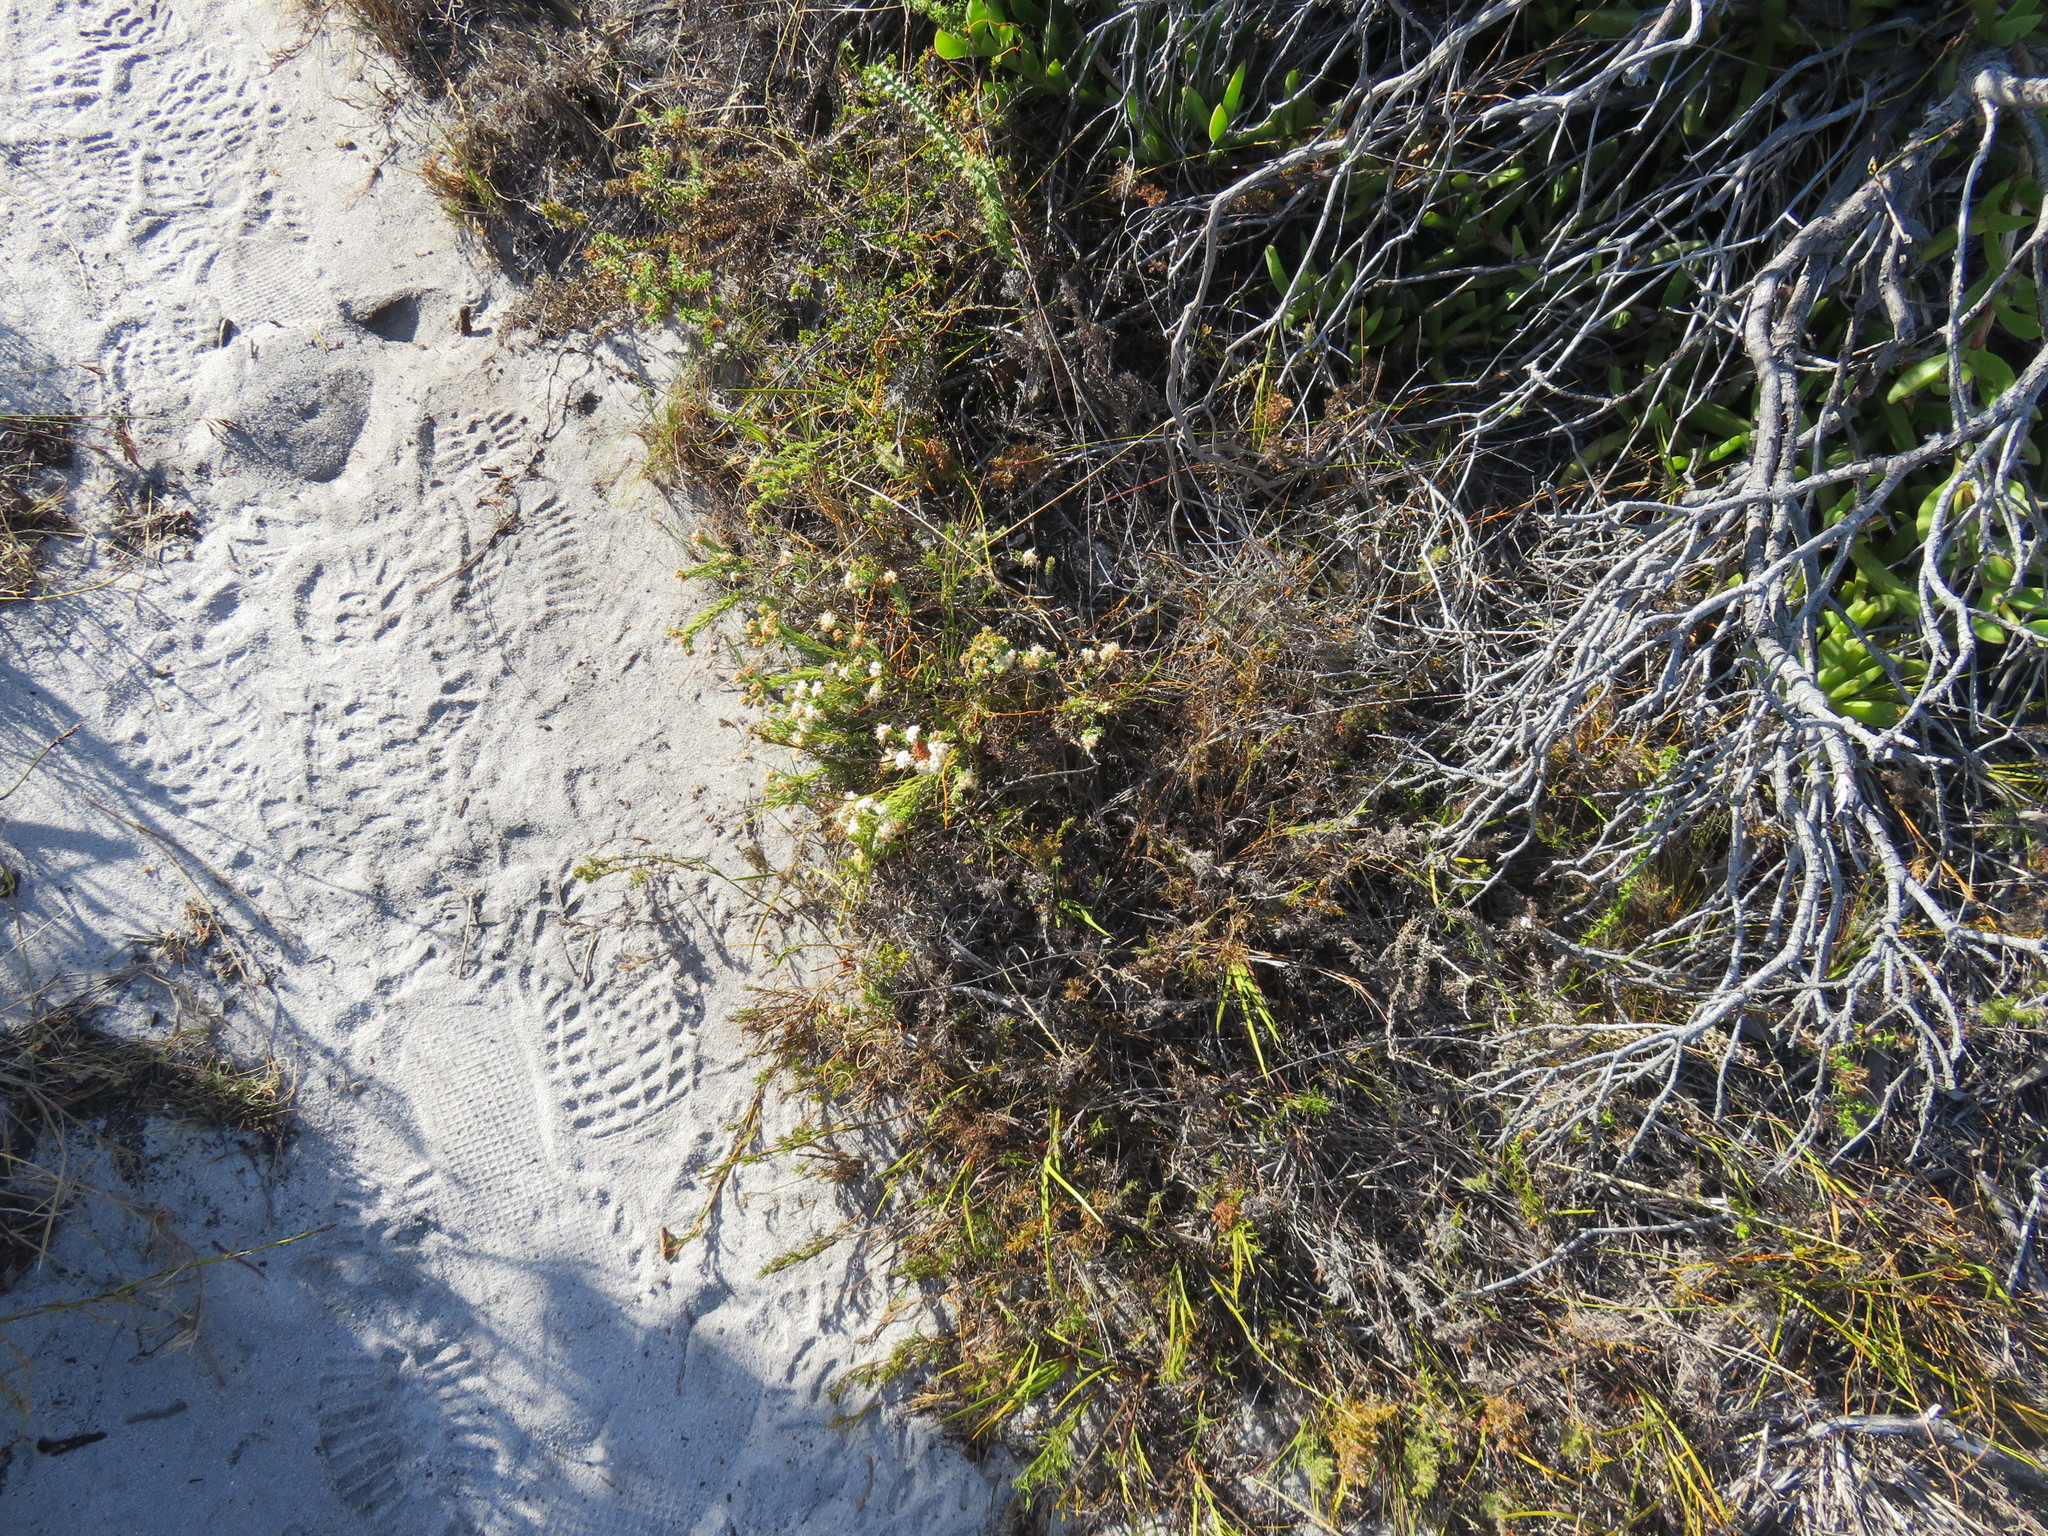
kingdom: Plantae
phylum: Tracheophyta
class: Magnoliopsida
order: Sapindales
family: Rutaceae
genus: Macrostylis
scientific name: Macrostylis villosa
